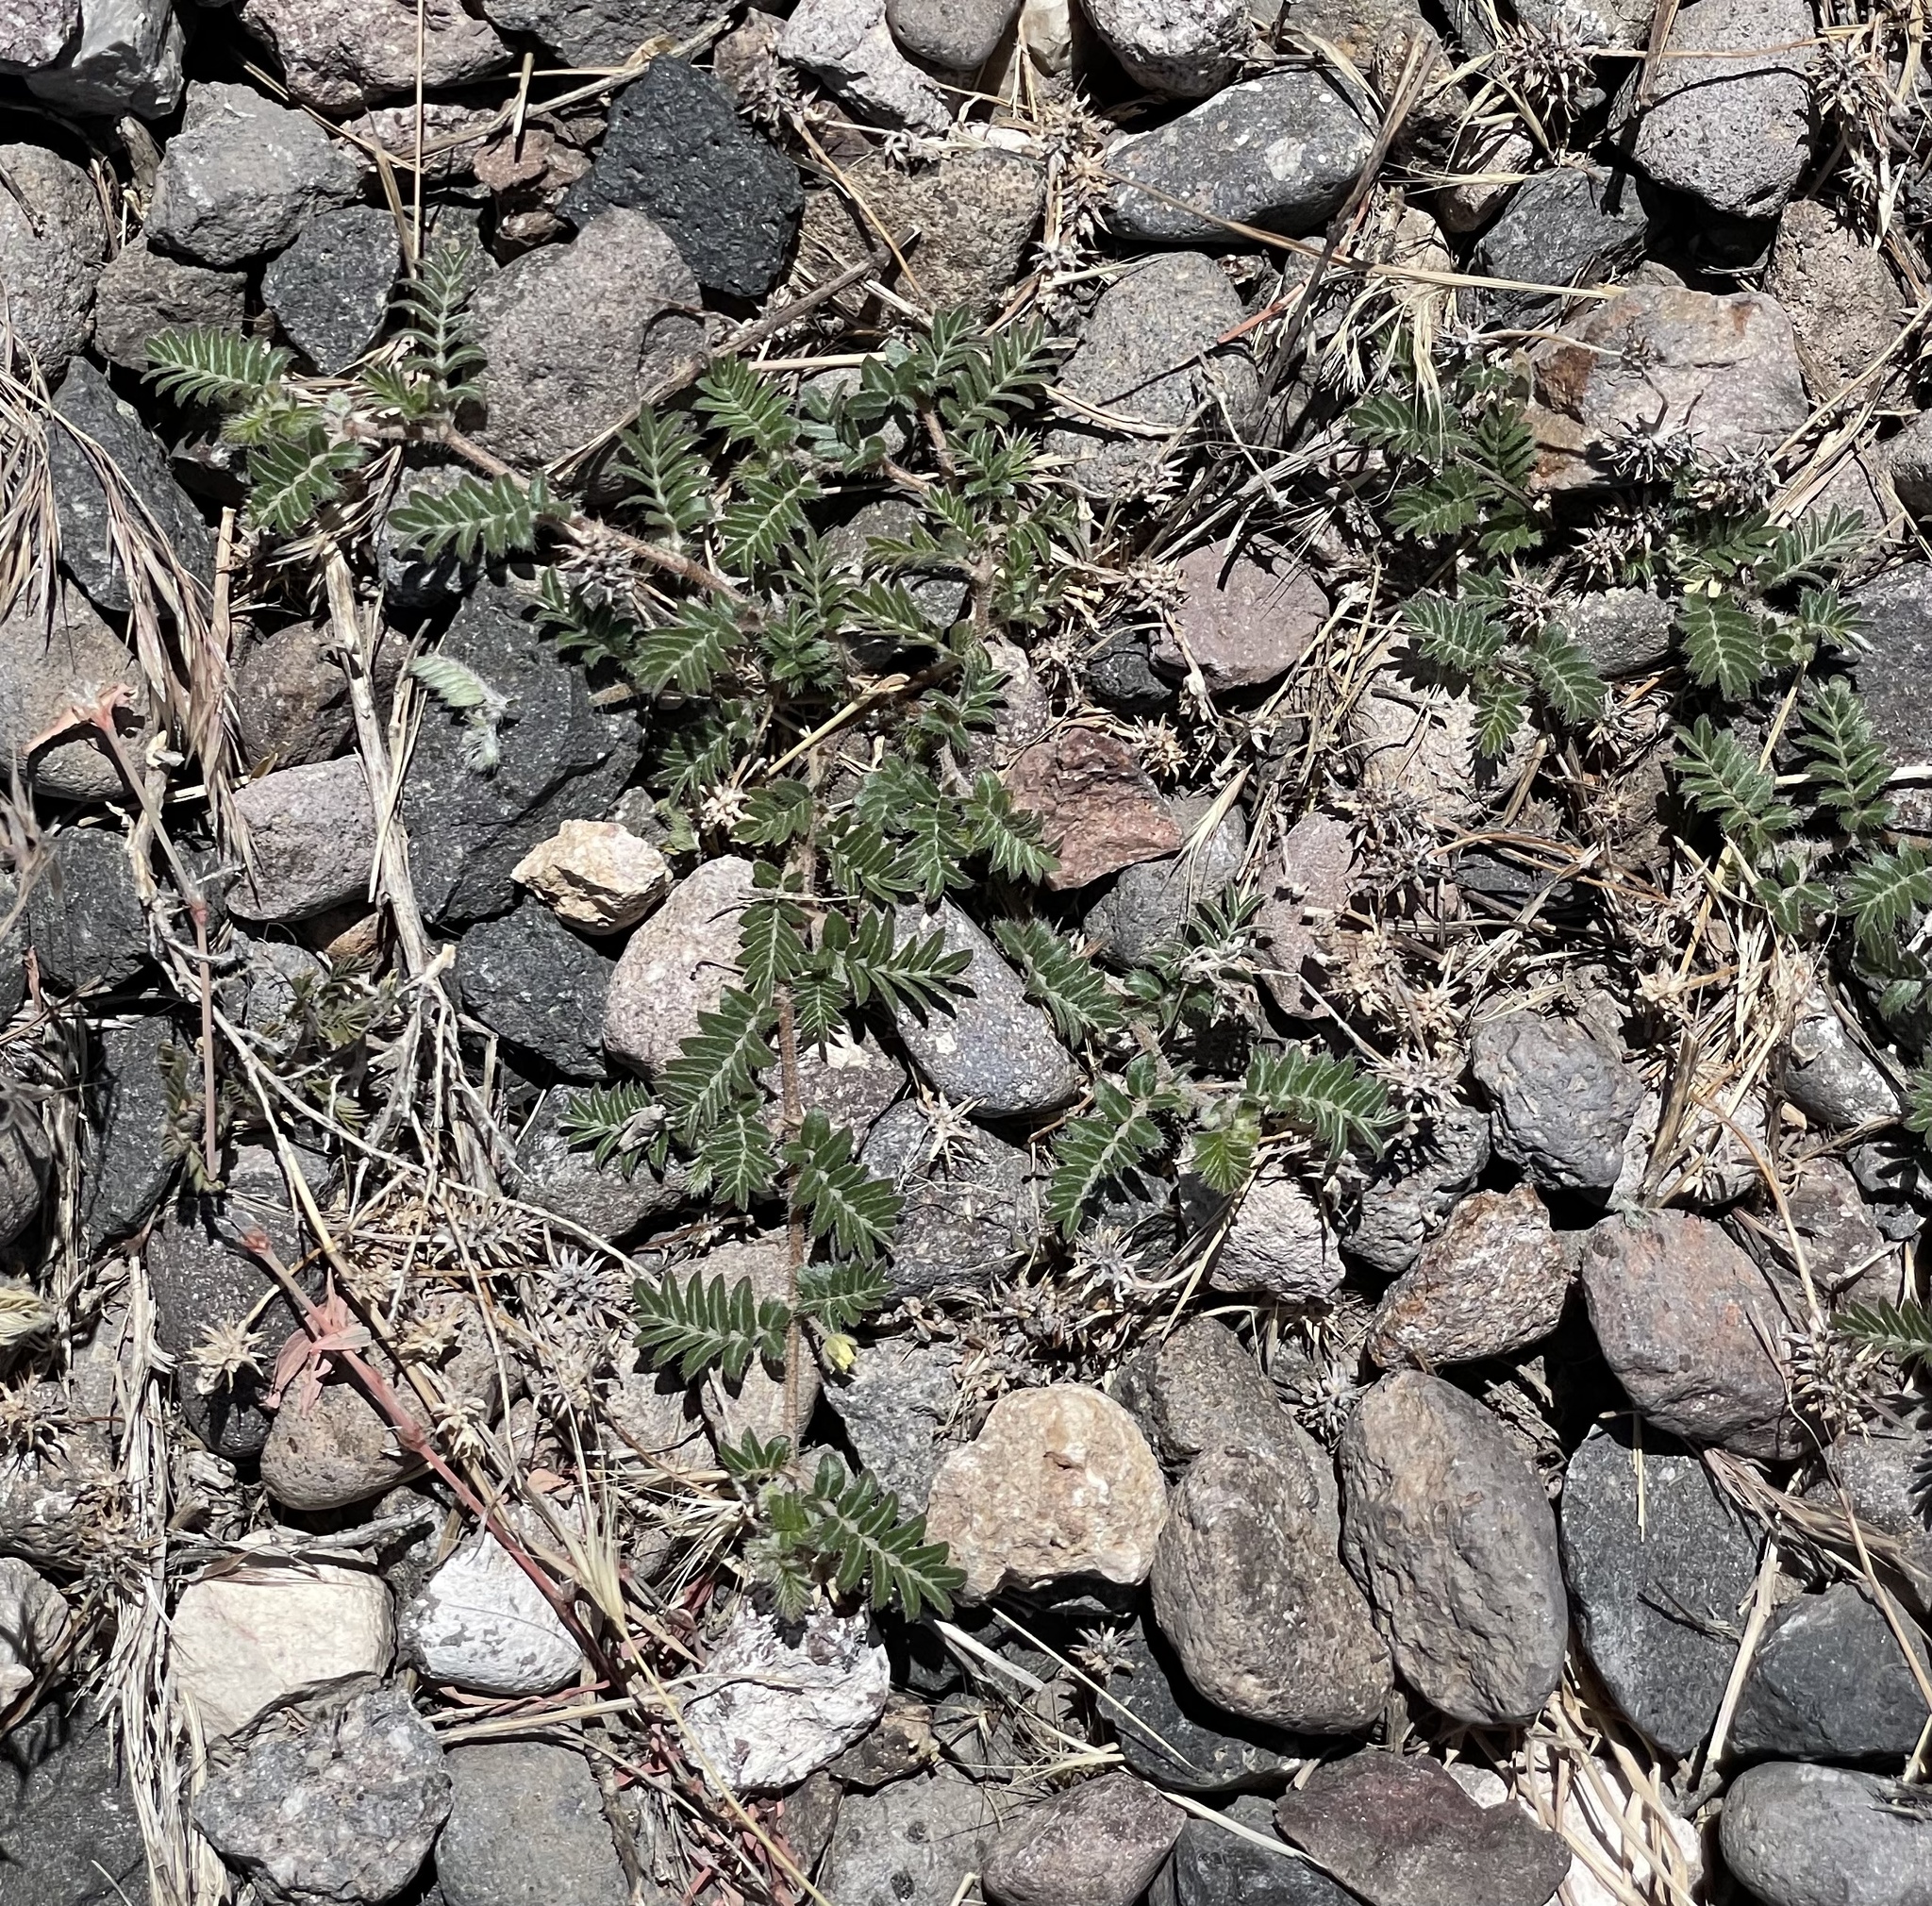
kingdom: Plantae
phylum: Tracheophyta
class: Magnoliopsida
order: Zygophyllales
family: Zygophyllaceae
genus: Tribulus
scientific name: Tribulus terrestris
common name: Puncturevine
